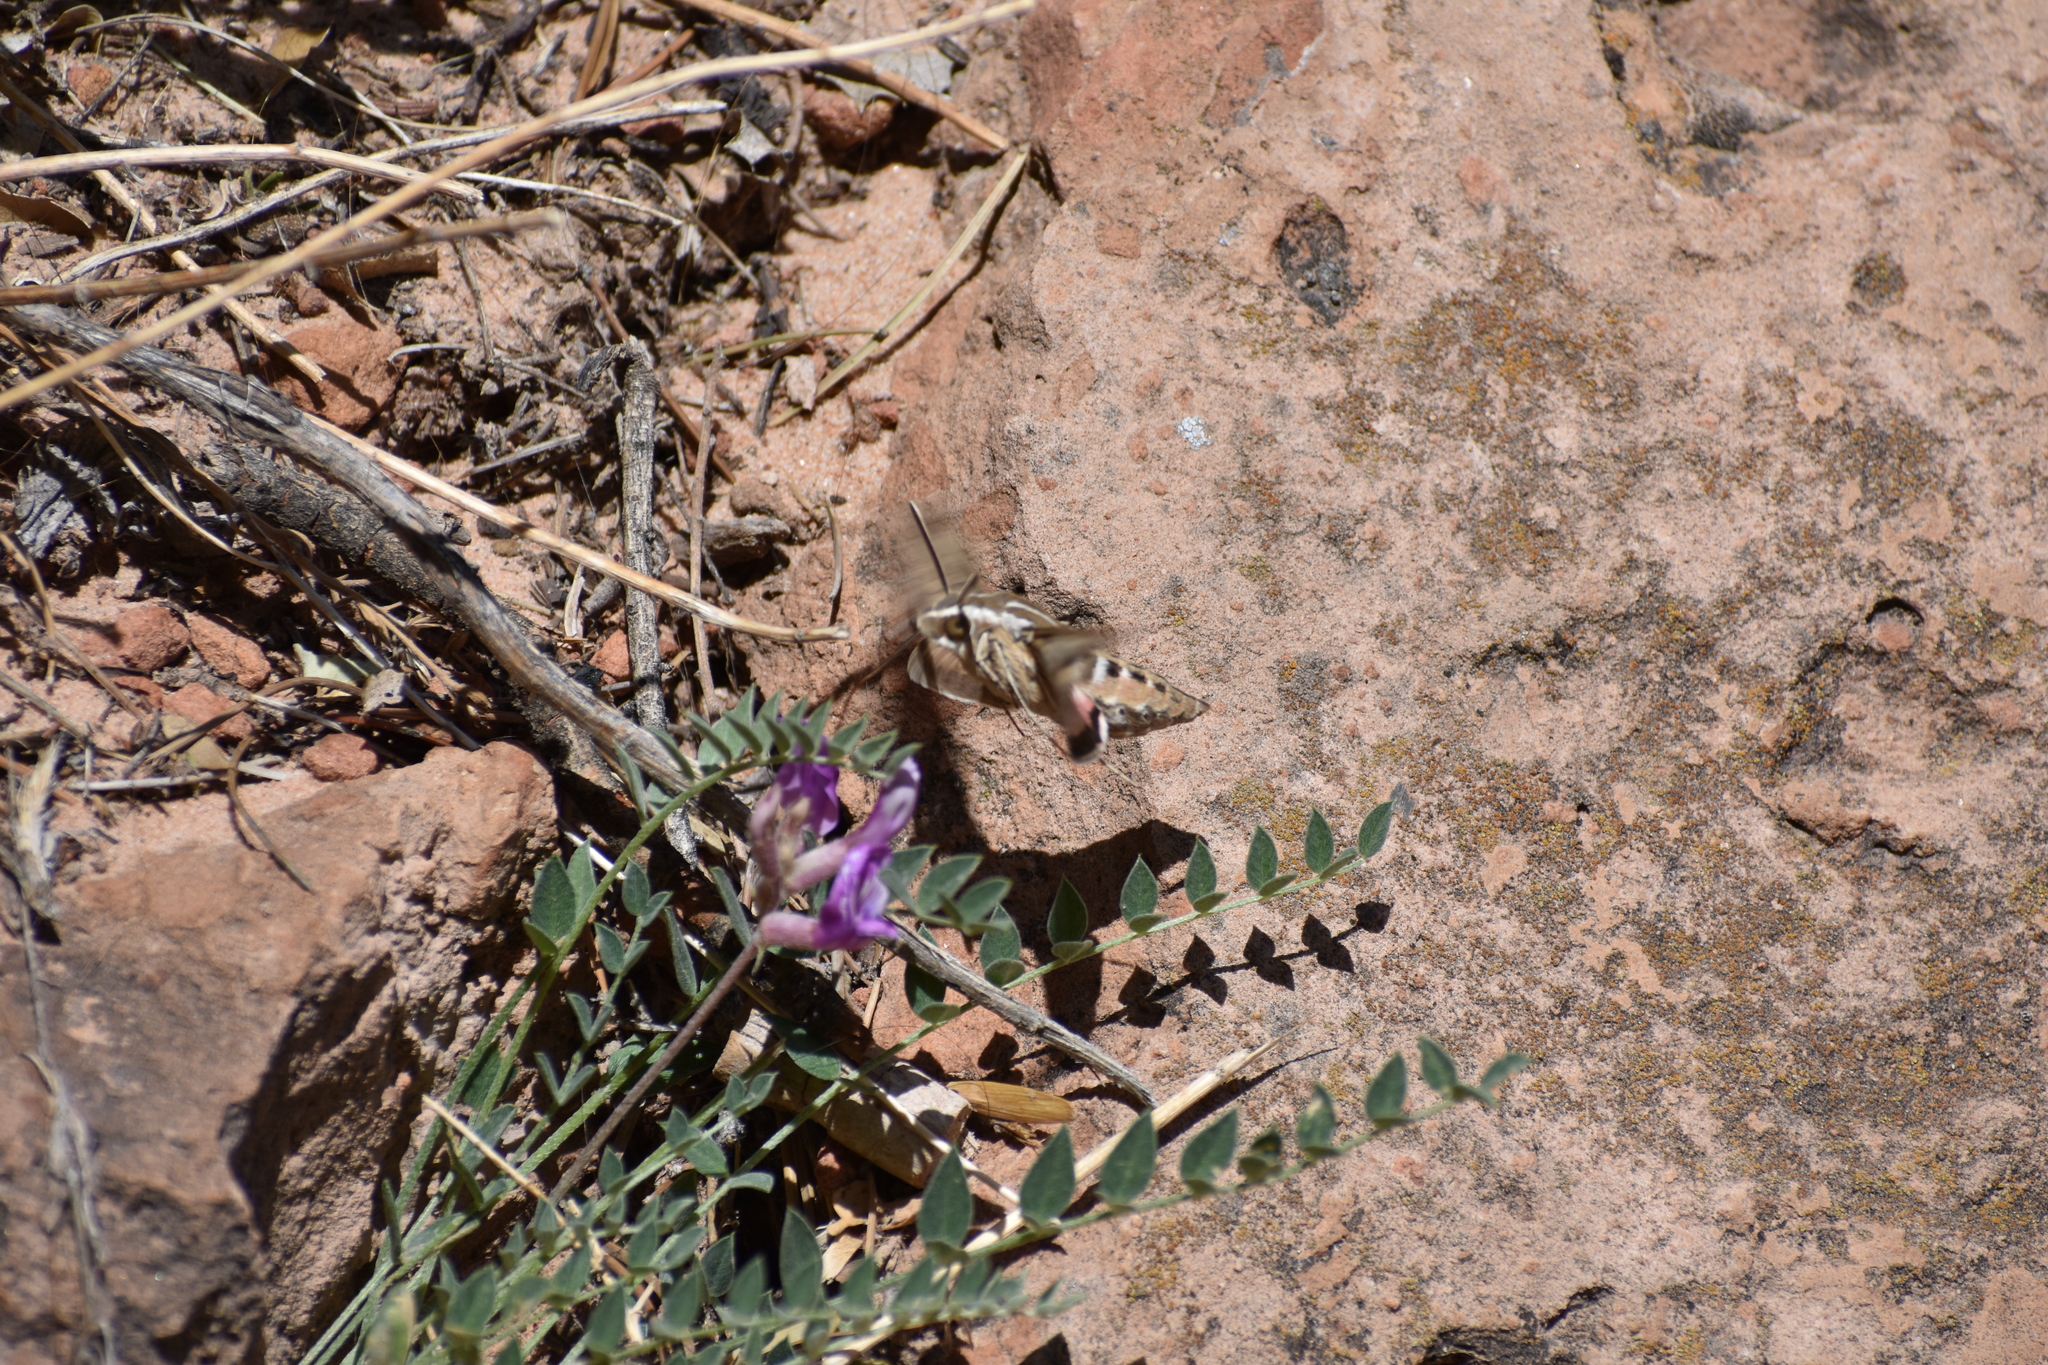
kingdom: Animalia
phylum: Arthropoda
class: Insecta
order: Lepidoptera
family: Sphingidae
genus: Hyles
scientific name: Hyles lineata
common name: White-lined sphinx
